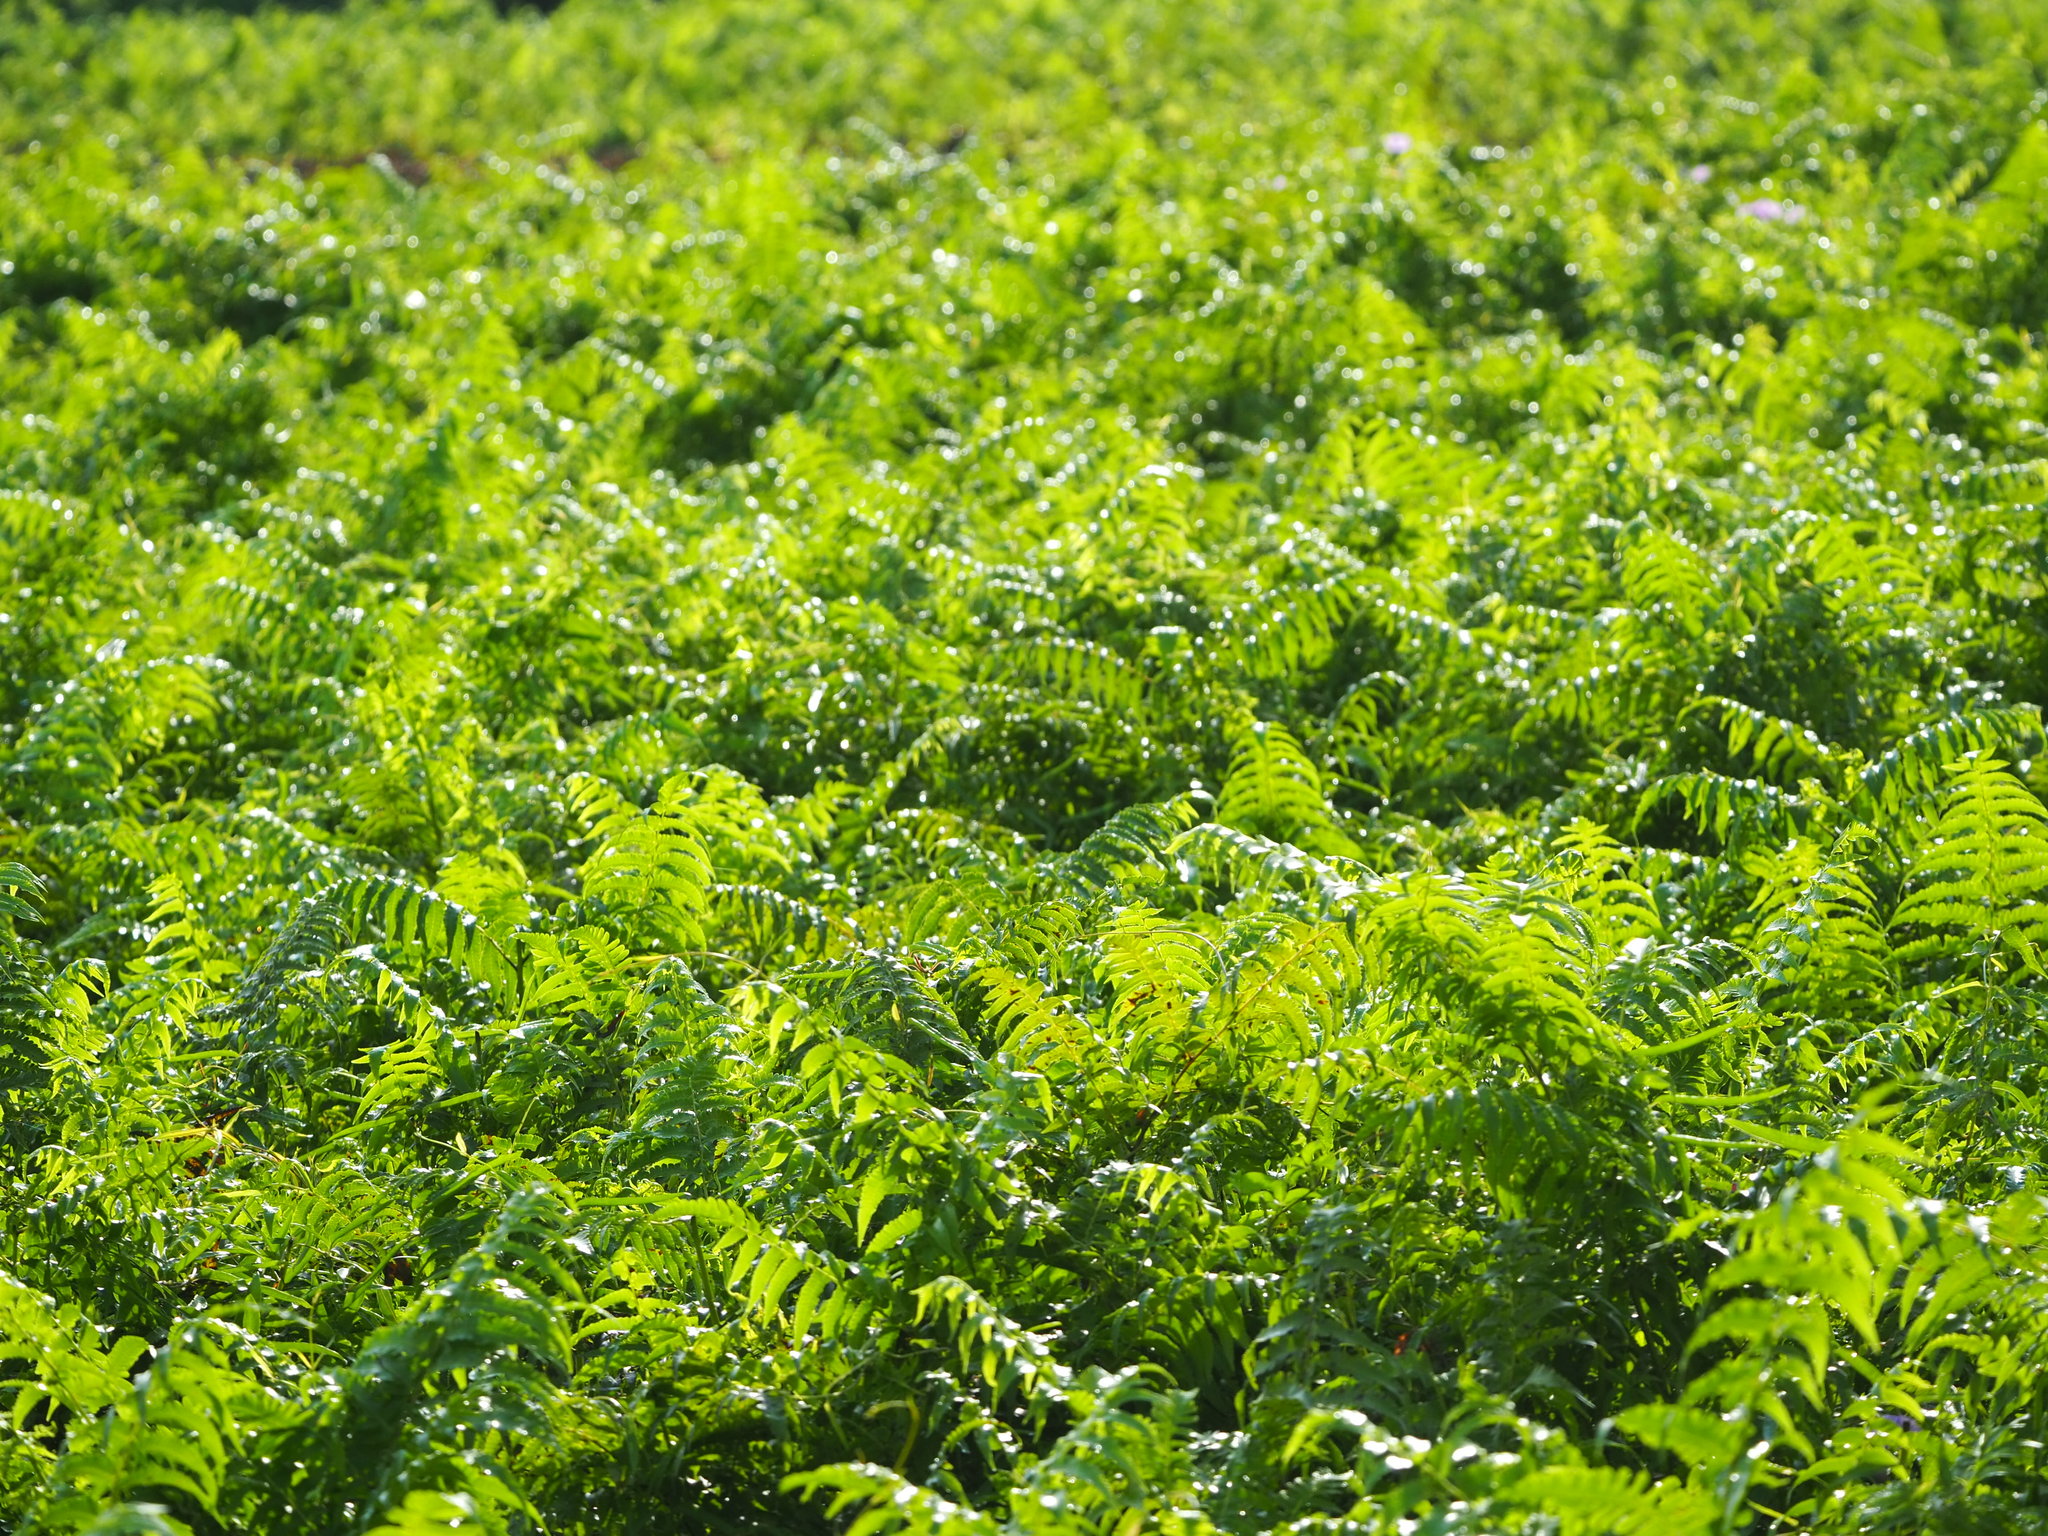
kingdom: Plantae
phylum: Tracheophyta
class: Polypodiopsida
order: Polypodiales
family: Athyriaceae
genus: Diplazium
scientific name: Diplazium esculentum
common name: Vegetable fern
